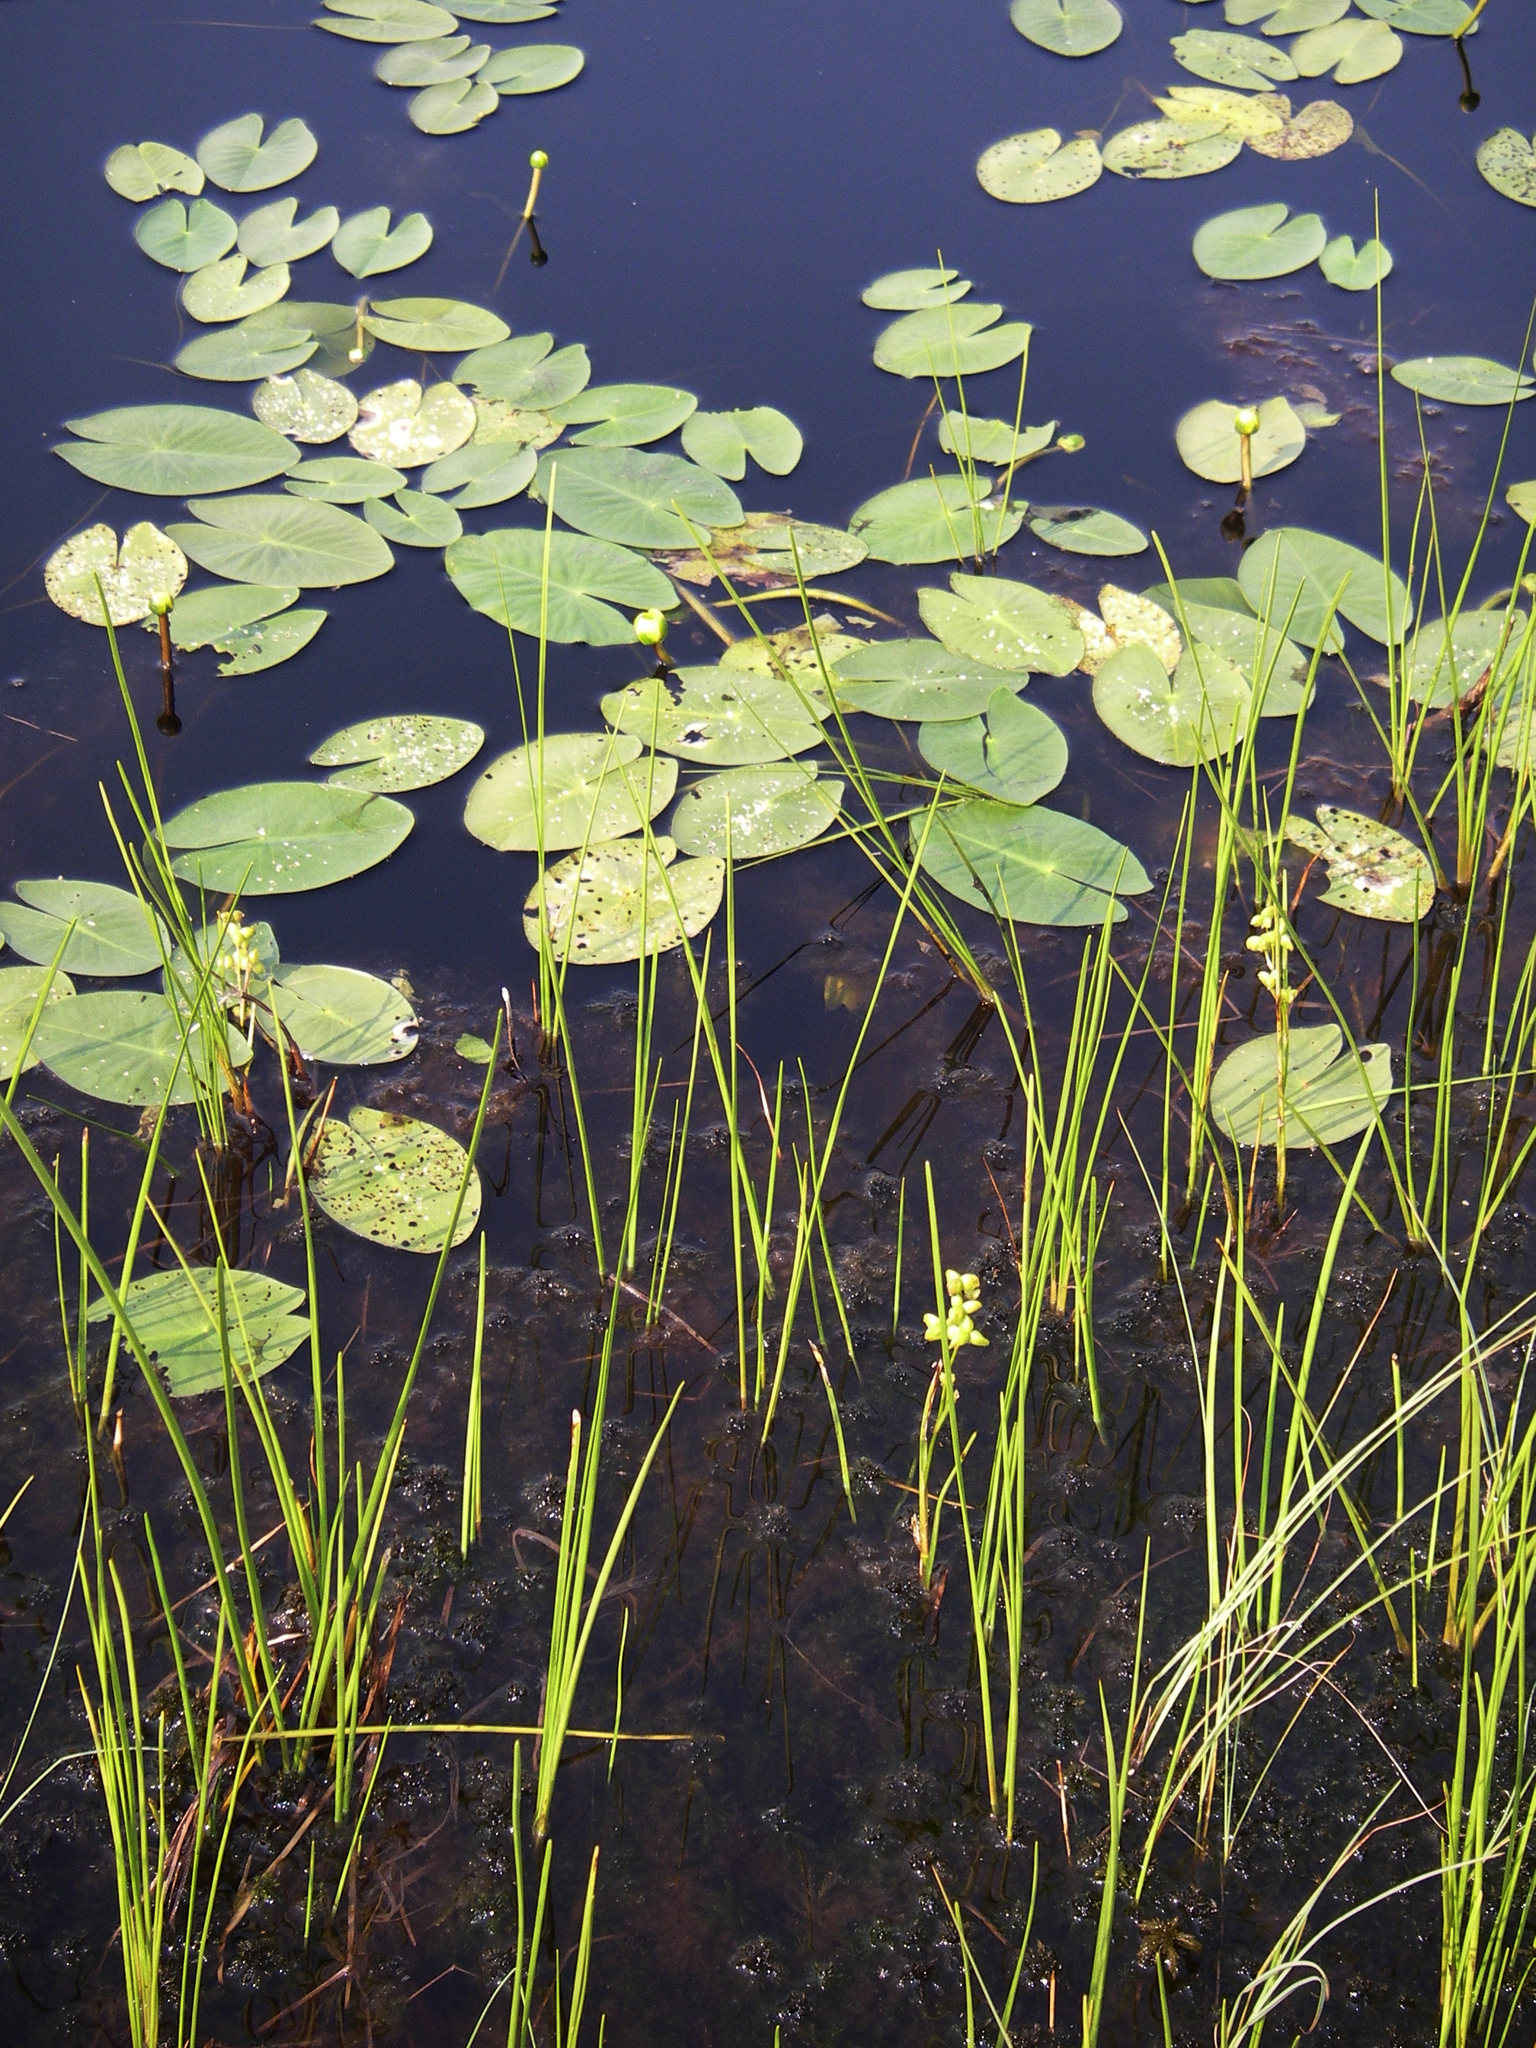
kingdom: Plantae
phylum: Tracheophyta
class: Magnoliopsida
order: Nymphaeales
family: Nymphaeaceae
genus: Nuphar
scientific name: Nuphar pumila
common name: Least water-lily
